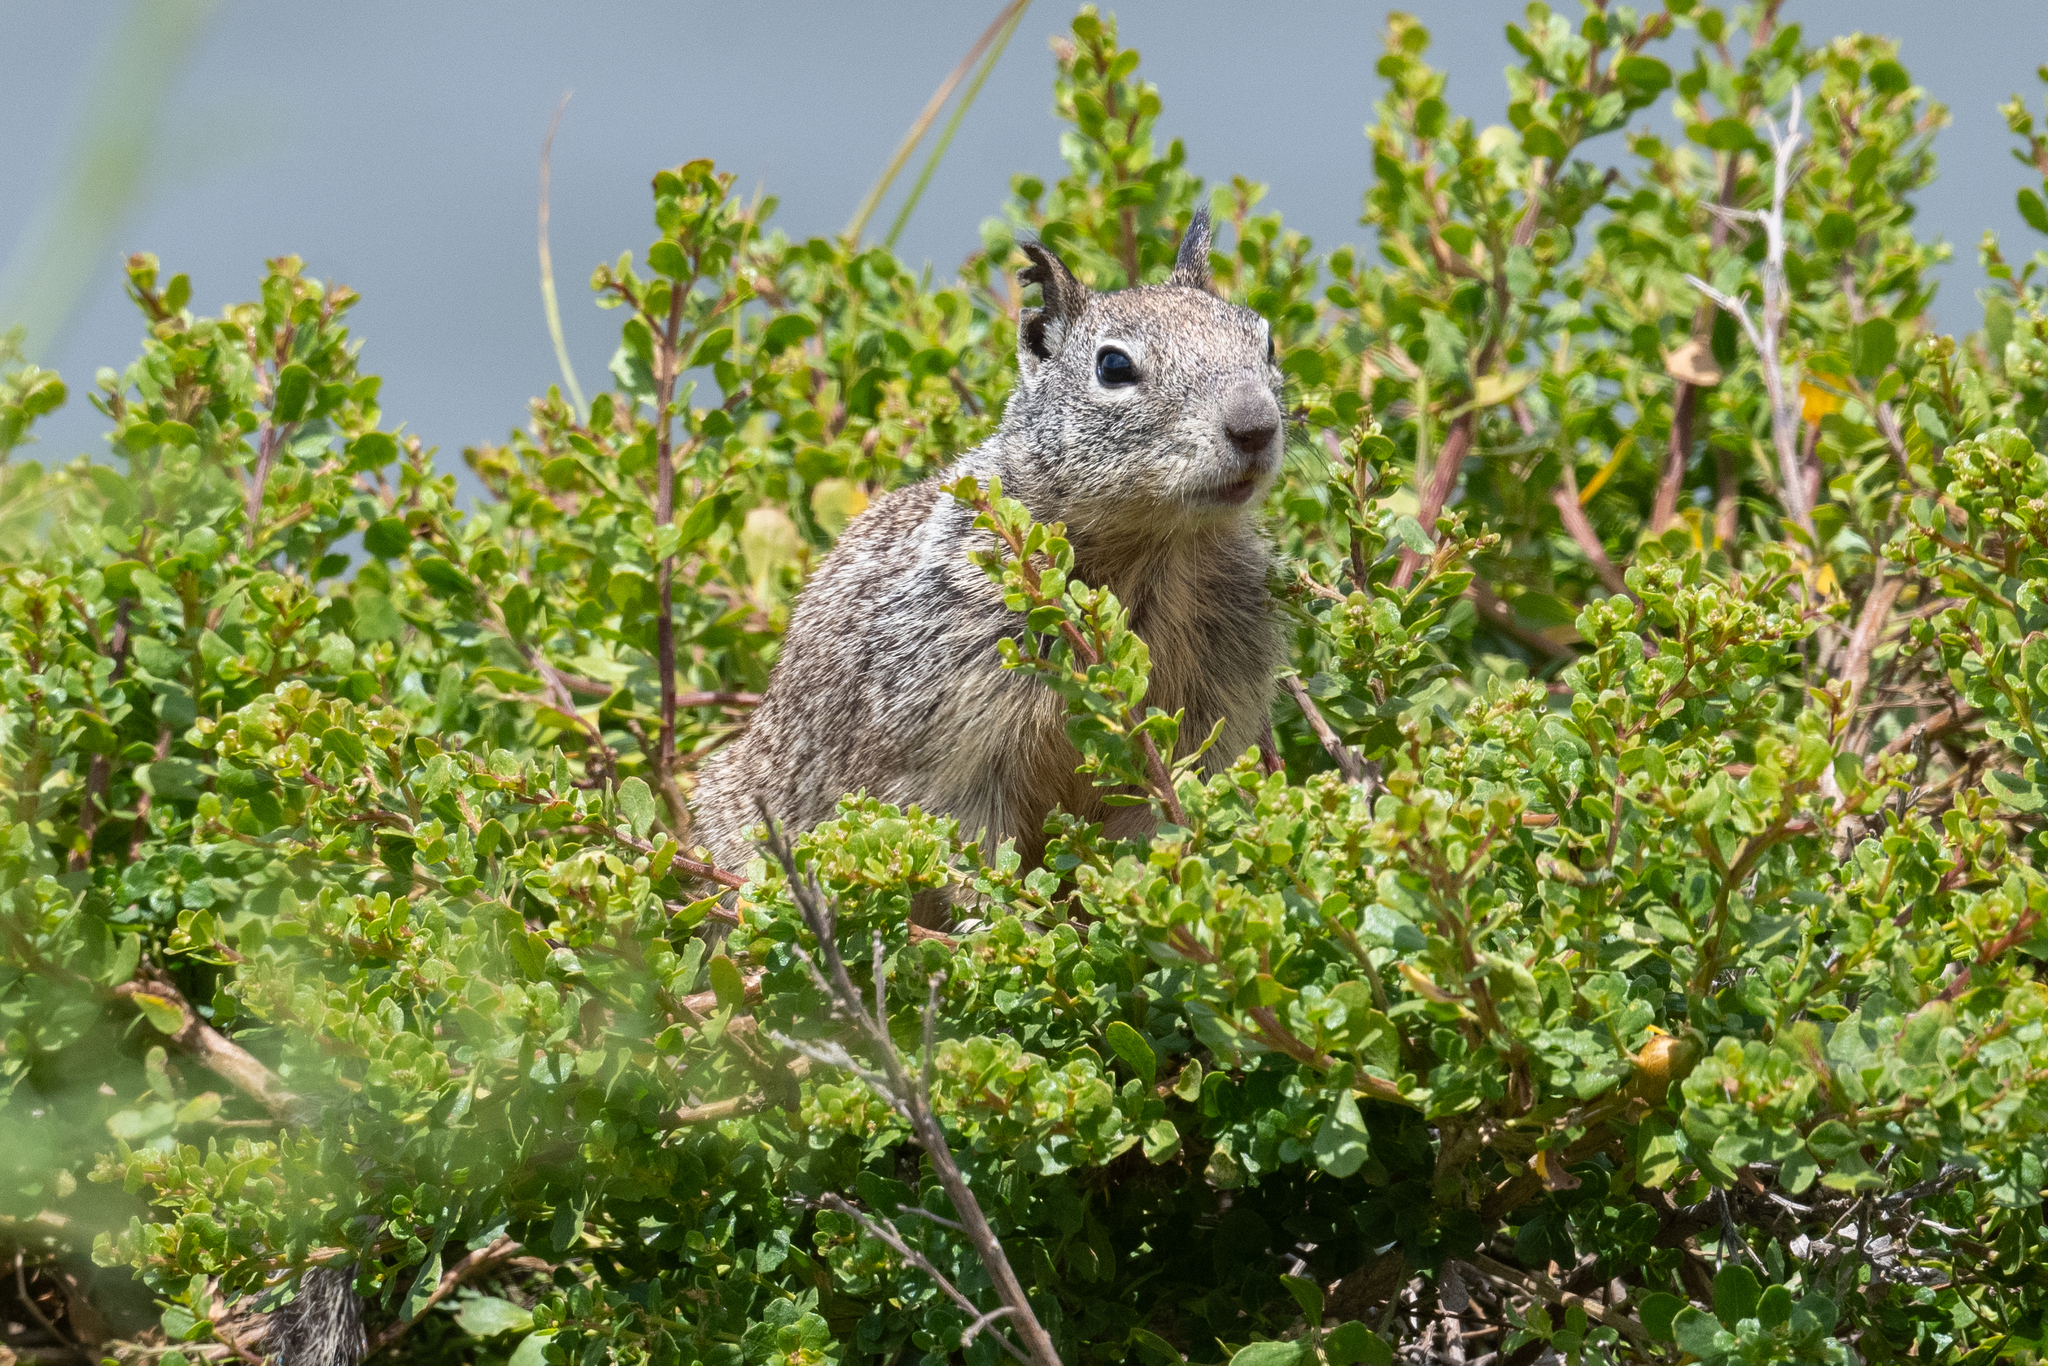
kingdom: Animalia
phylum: Chordata
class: Mammalia
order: Rodentia
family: Sciuridae
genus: Otospermophilus
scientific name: Otospermophilus beecheyi
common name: California ground squirrel
